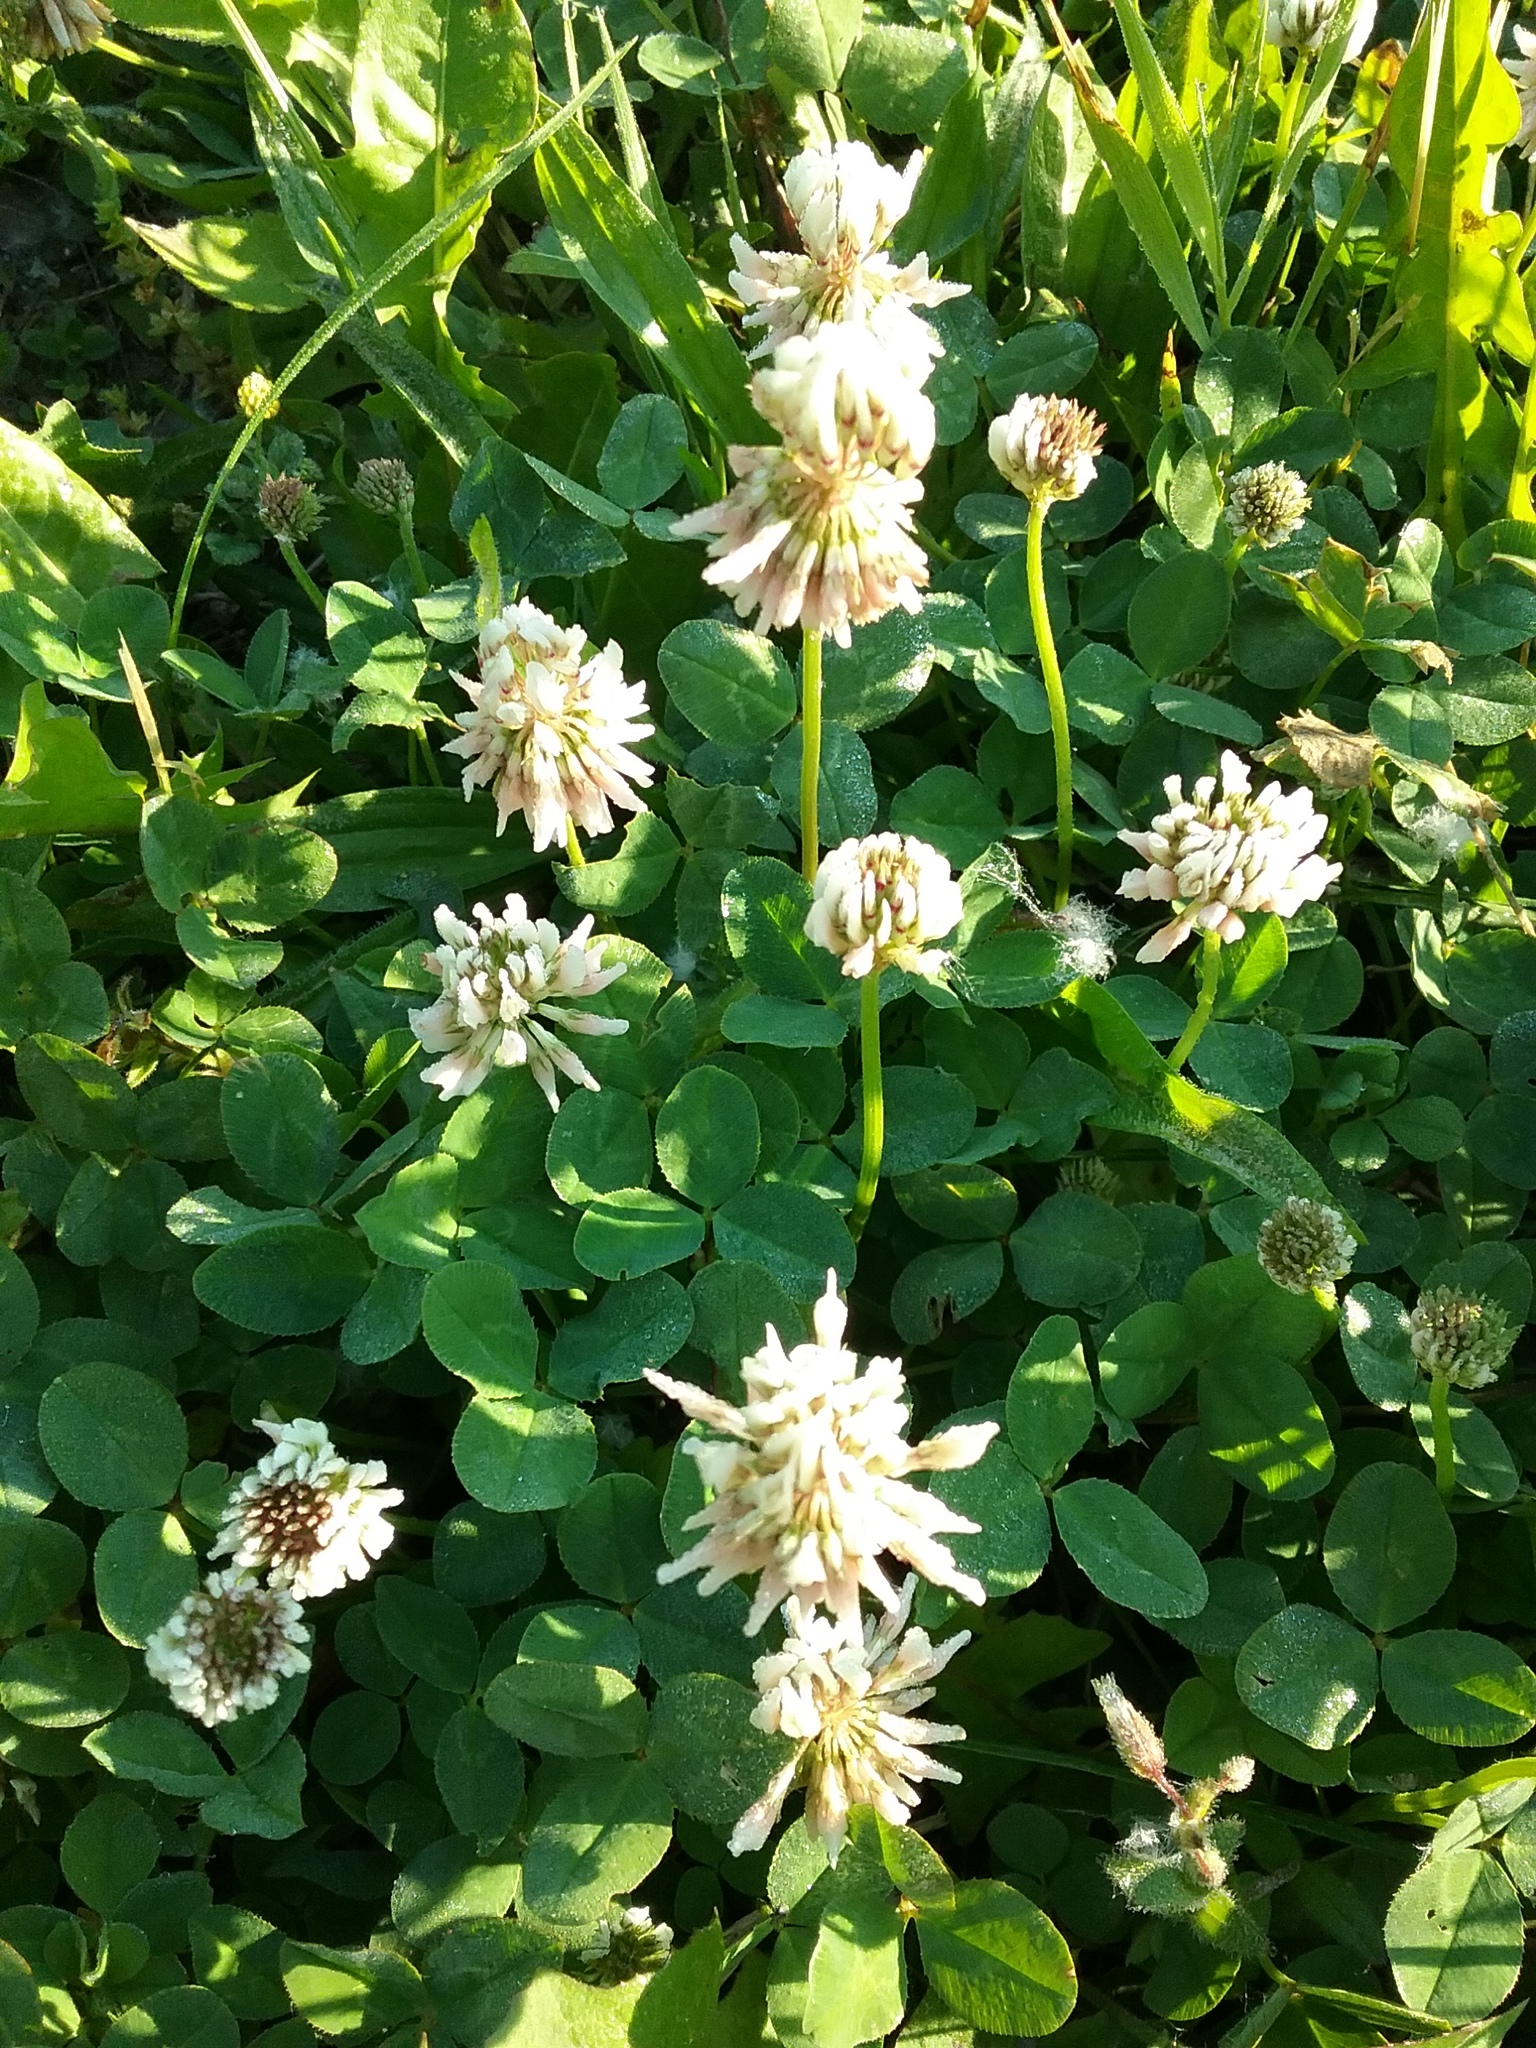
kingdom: Plantae
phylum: Tracheophyta
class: Magnoliopsida
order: Fabales
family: Fabaceae
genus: Trifolium
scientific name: Trifolium repens
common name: White clover
